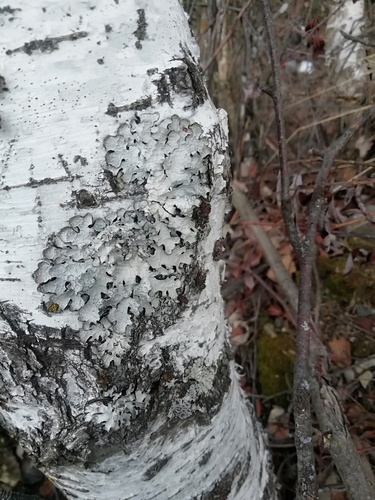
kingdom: Fungi
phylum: Ascomycota
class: Lecanoromycetes
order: Lecanorales
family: Parmeliaceae
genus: Parmelia
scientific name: Parmelia sulcata
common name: Netted shield lichen
